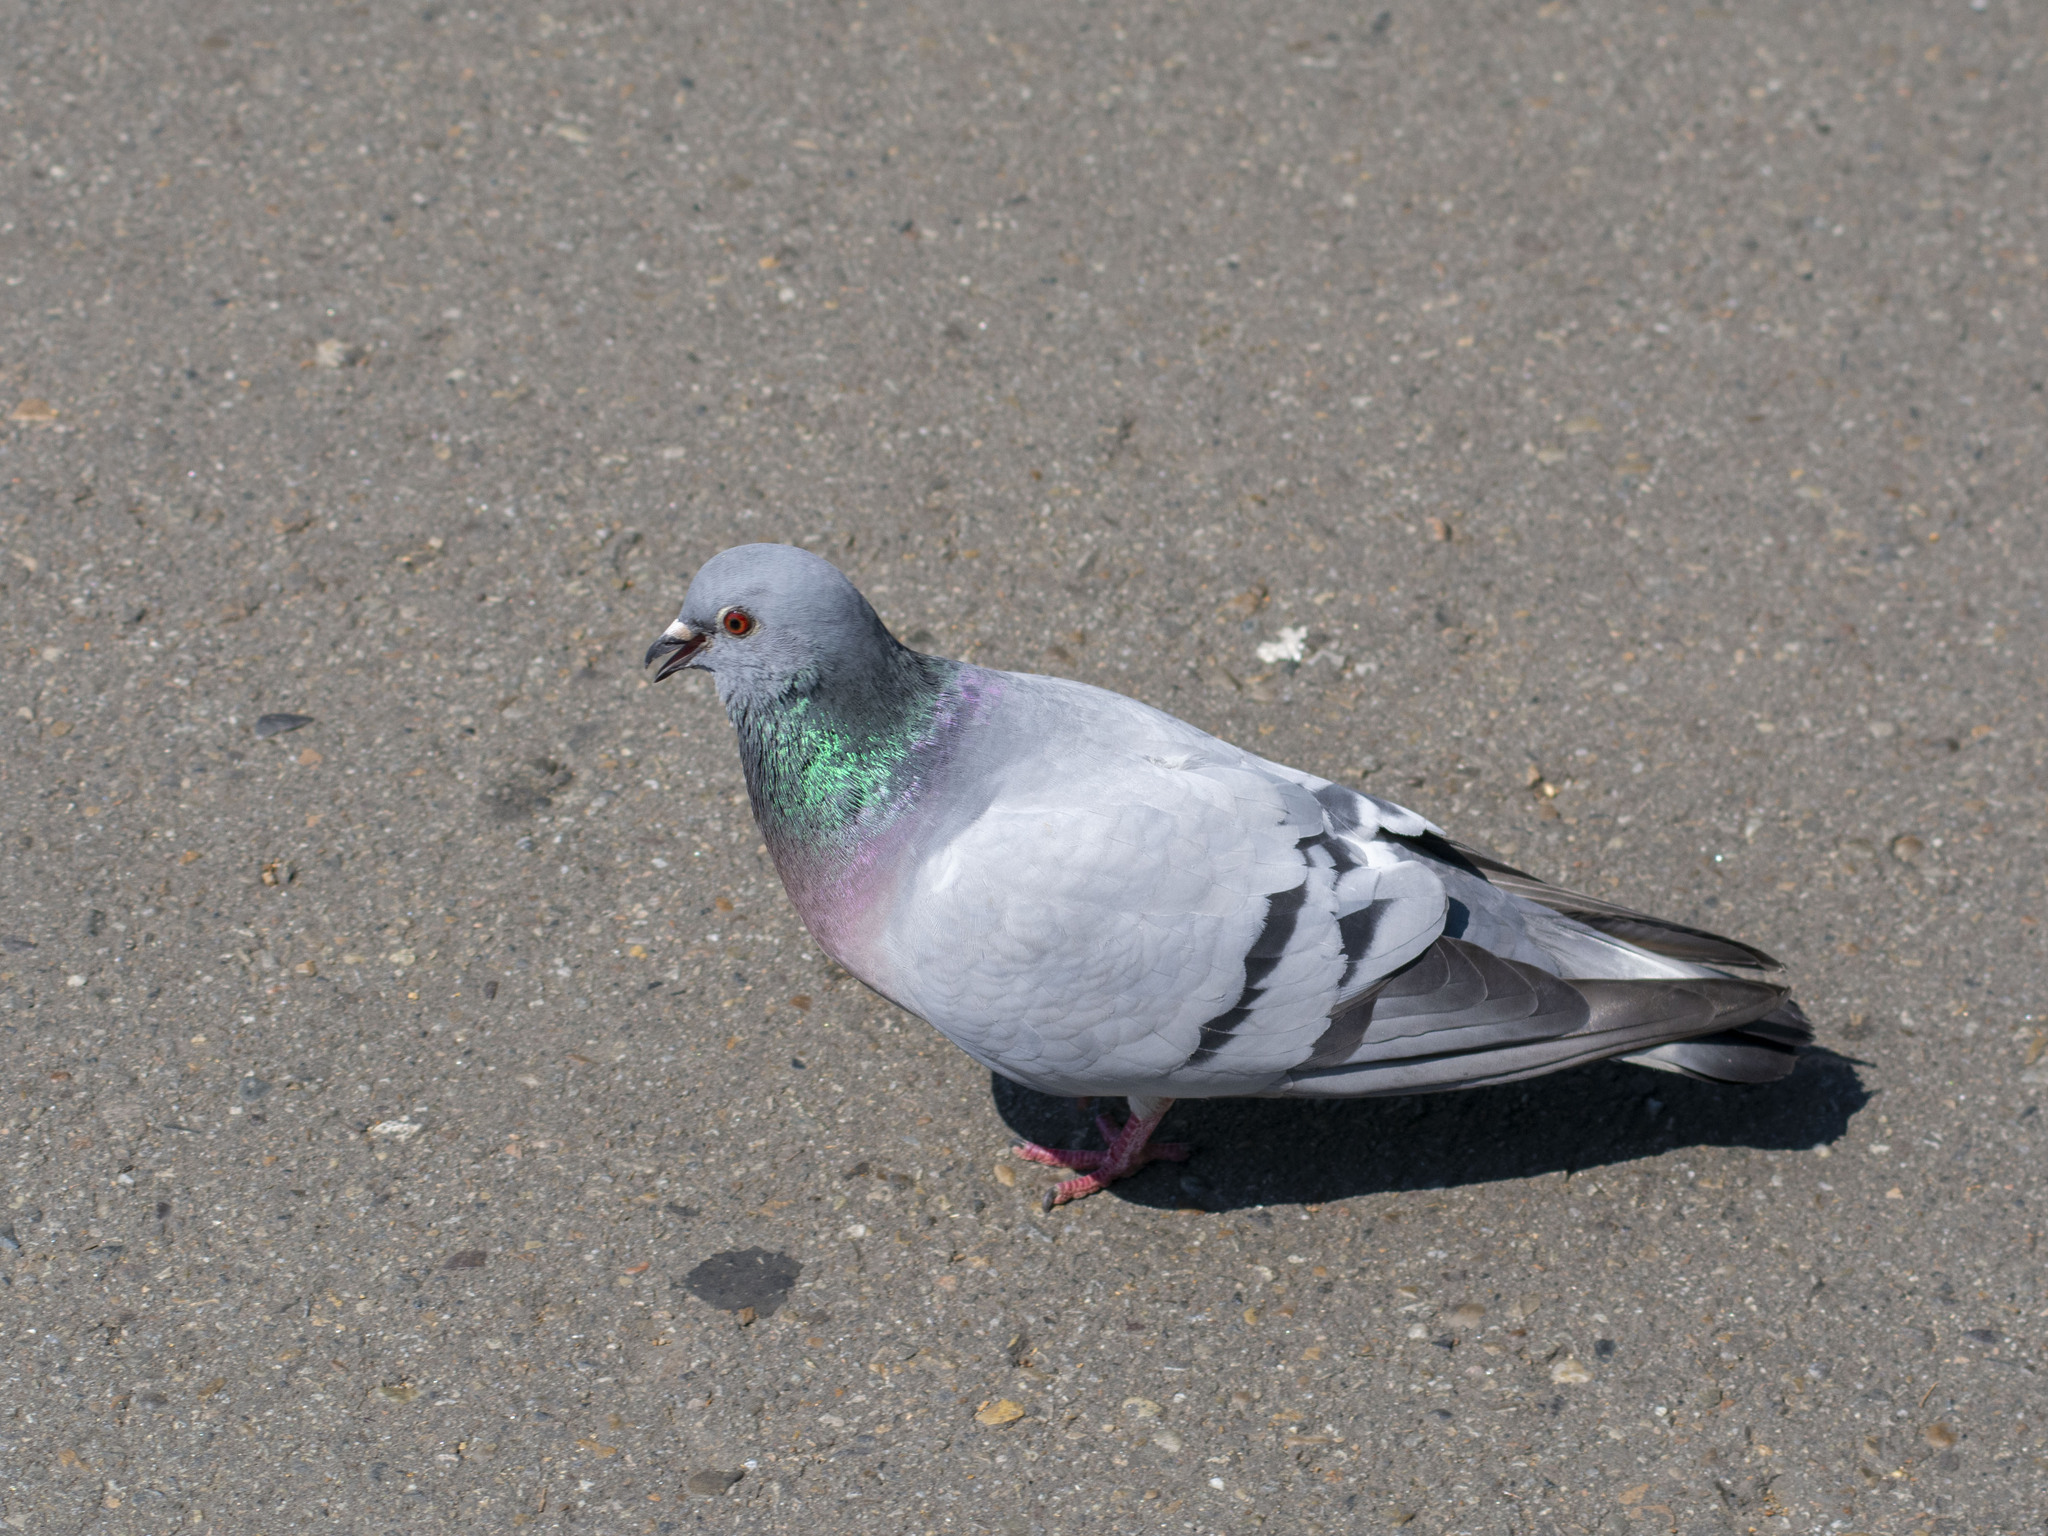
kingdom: Animalia
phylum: Chordata
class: Aves
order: Columbiformes
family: Columbidae
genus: Columba
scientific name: Columba rupestris
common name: Hill pigeon
